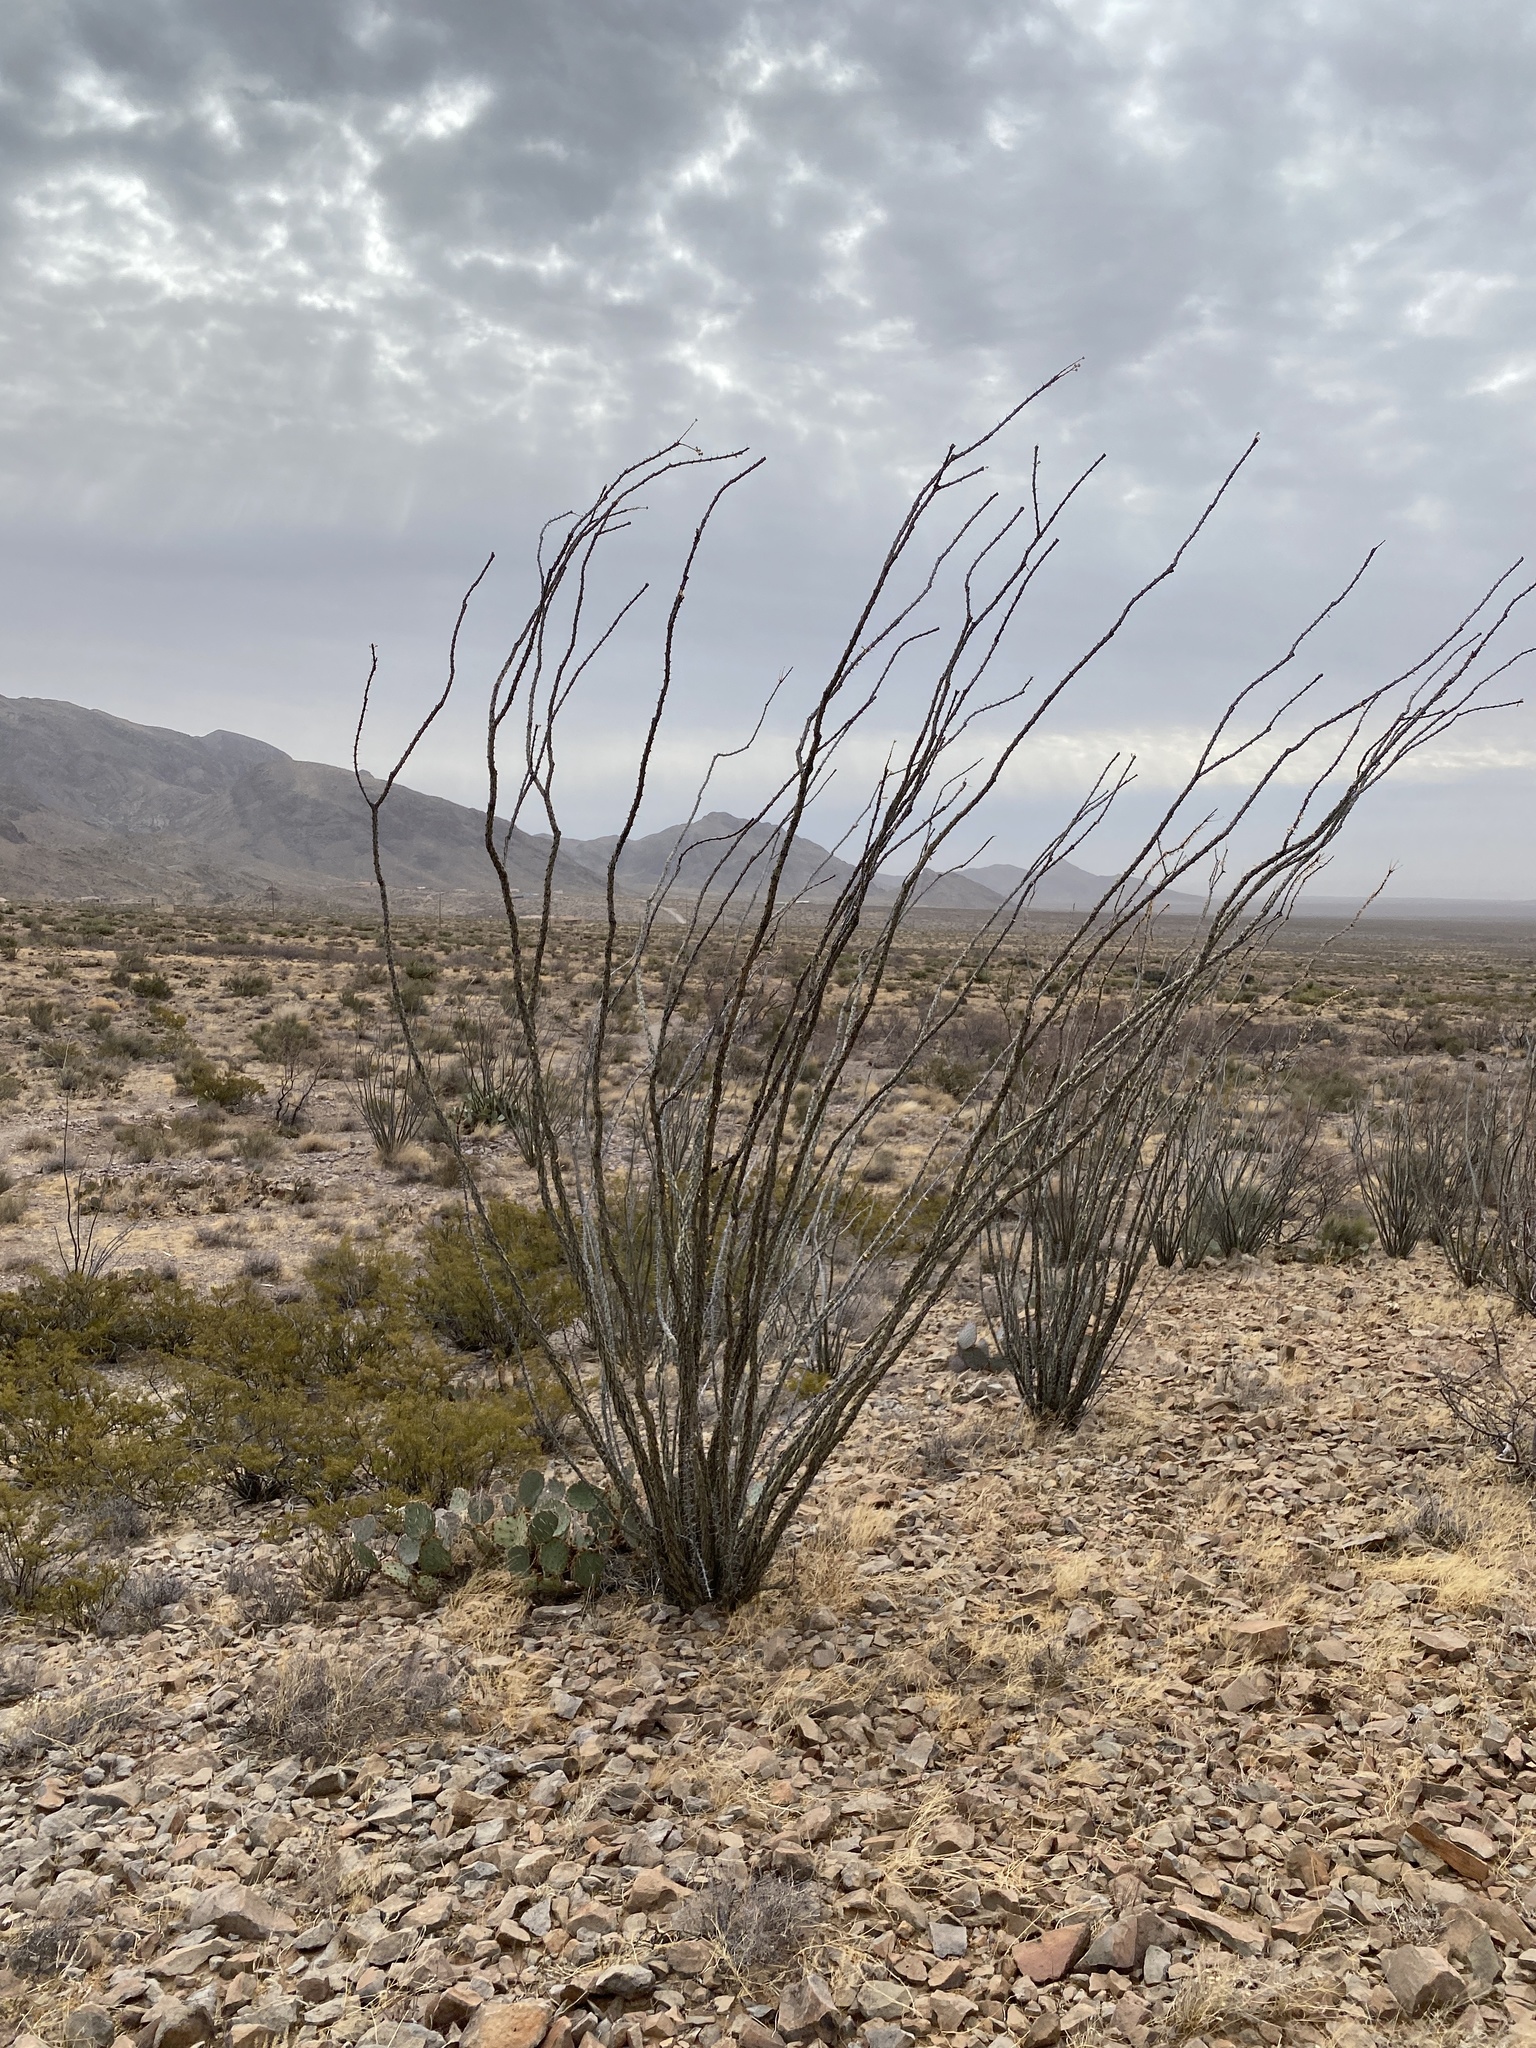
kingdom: Plantae
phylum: Tracheophyta
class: Magnoliopsida
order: Ericales
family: Fouquieriaceae
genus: Fouquieria
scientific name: Fouquieria splendens
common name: Vine-cactus
